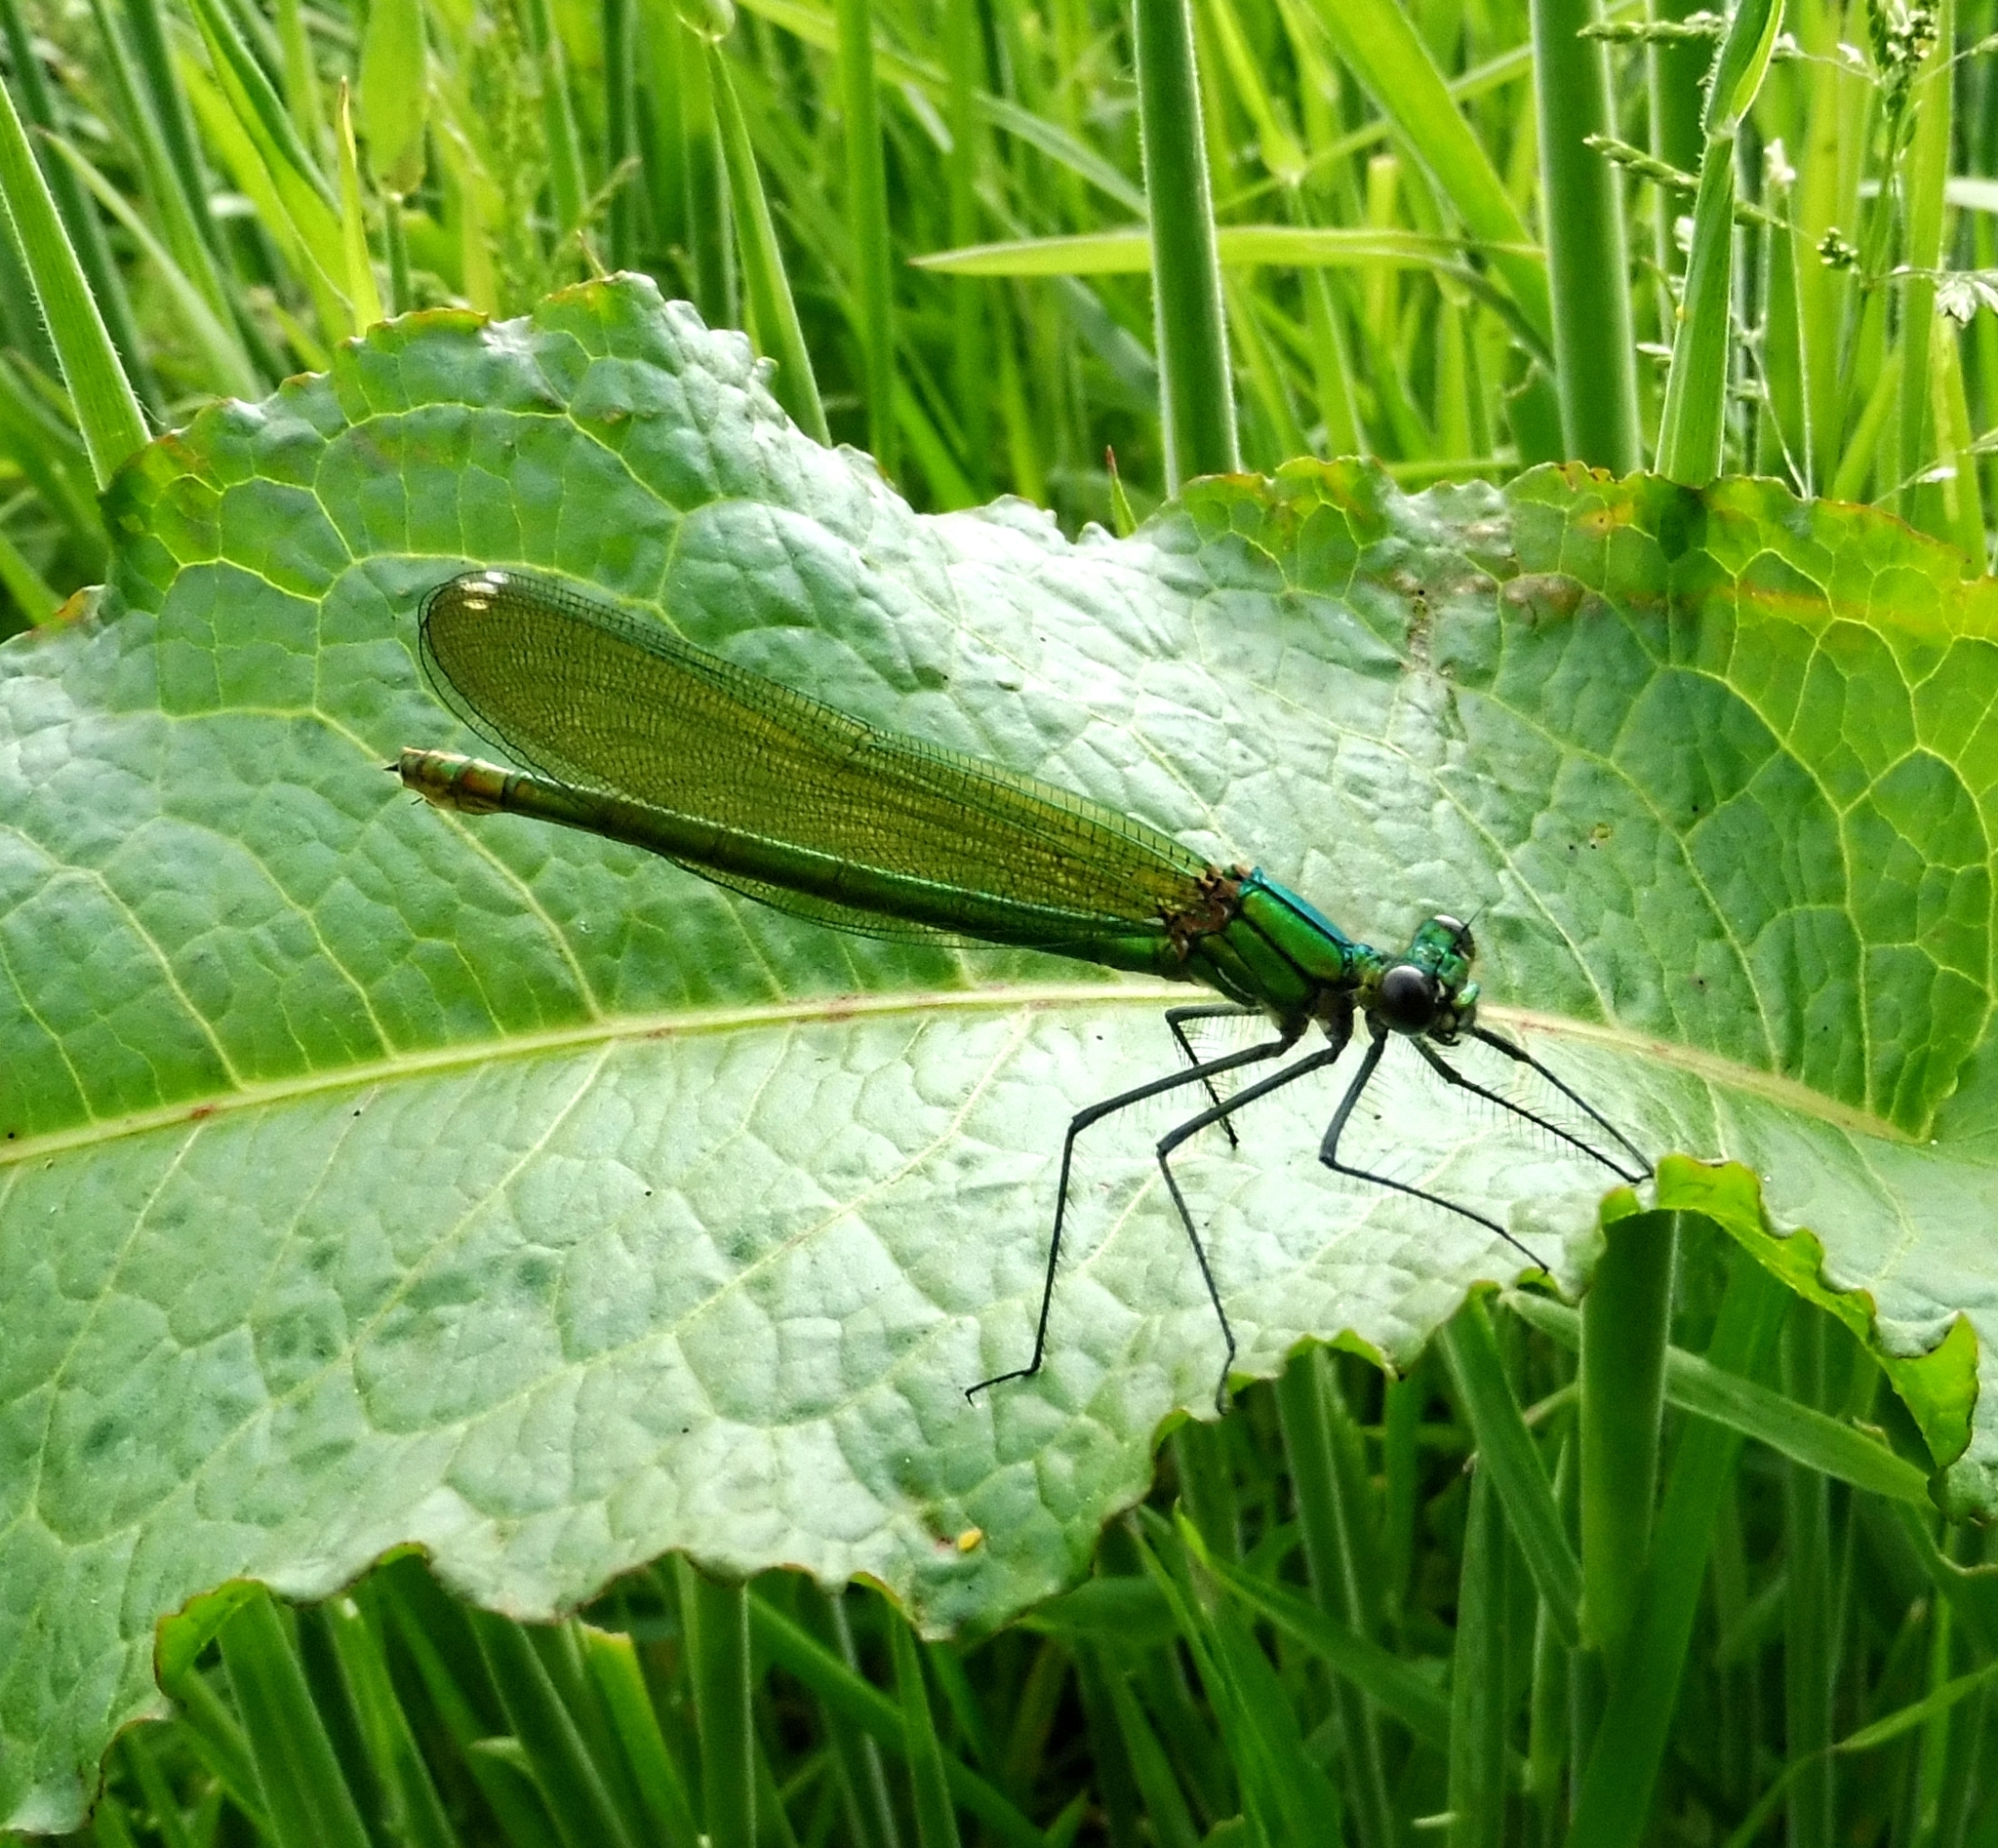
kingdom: Animalia
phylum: Arthropoda
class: Insecta
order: Odonata
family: Calopterygidae
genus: Calopteryx
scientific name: Calopteryx splendens
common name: Banded demoiselle
